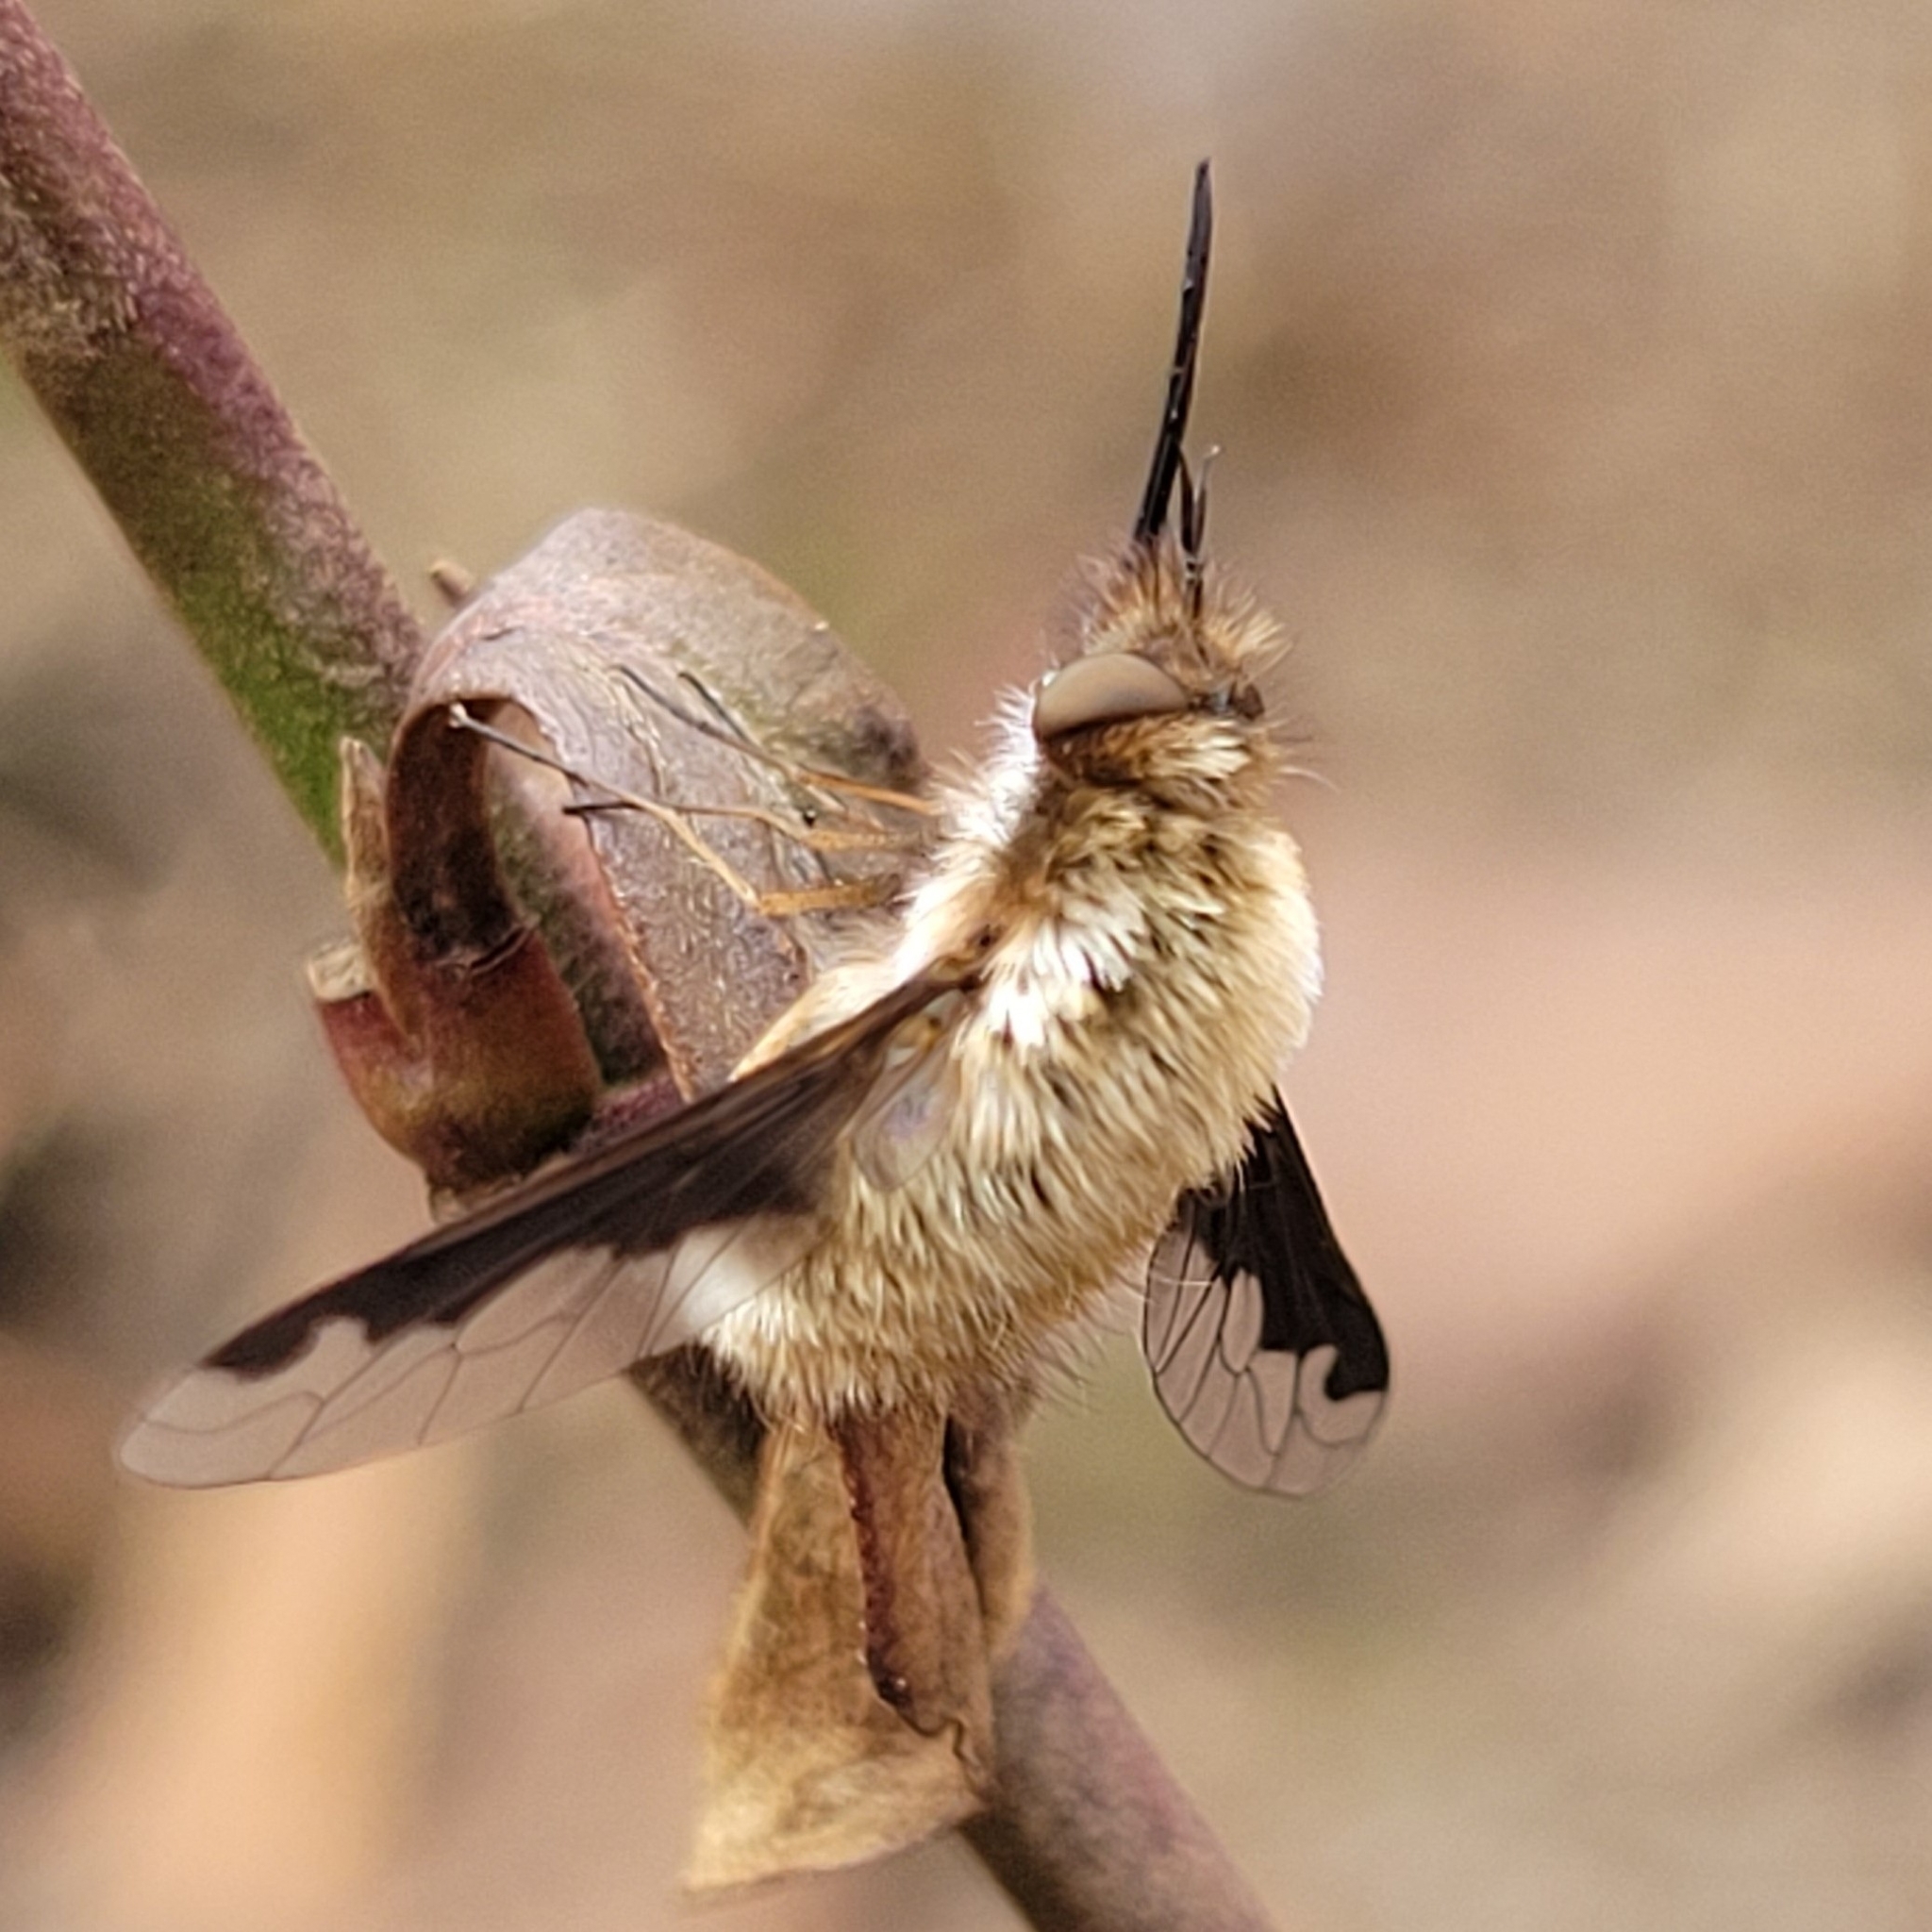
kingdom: Animalia
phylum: Arthropoda
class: Insecta
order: Diptera
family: Bombyliidae
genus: Bombylius
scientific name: Bombylius major
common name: Bee fly
